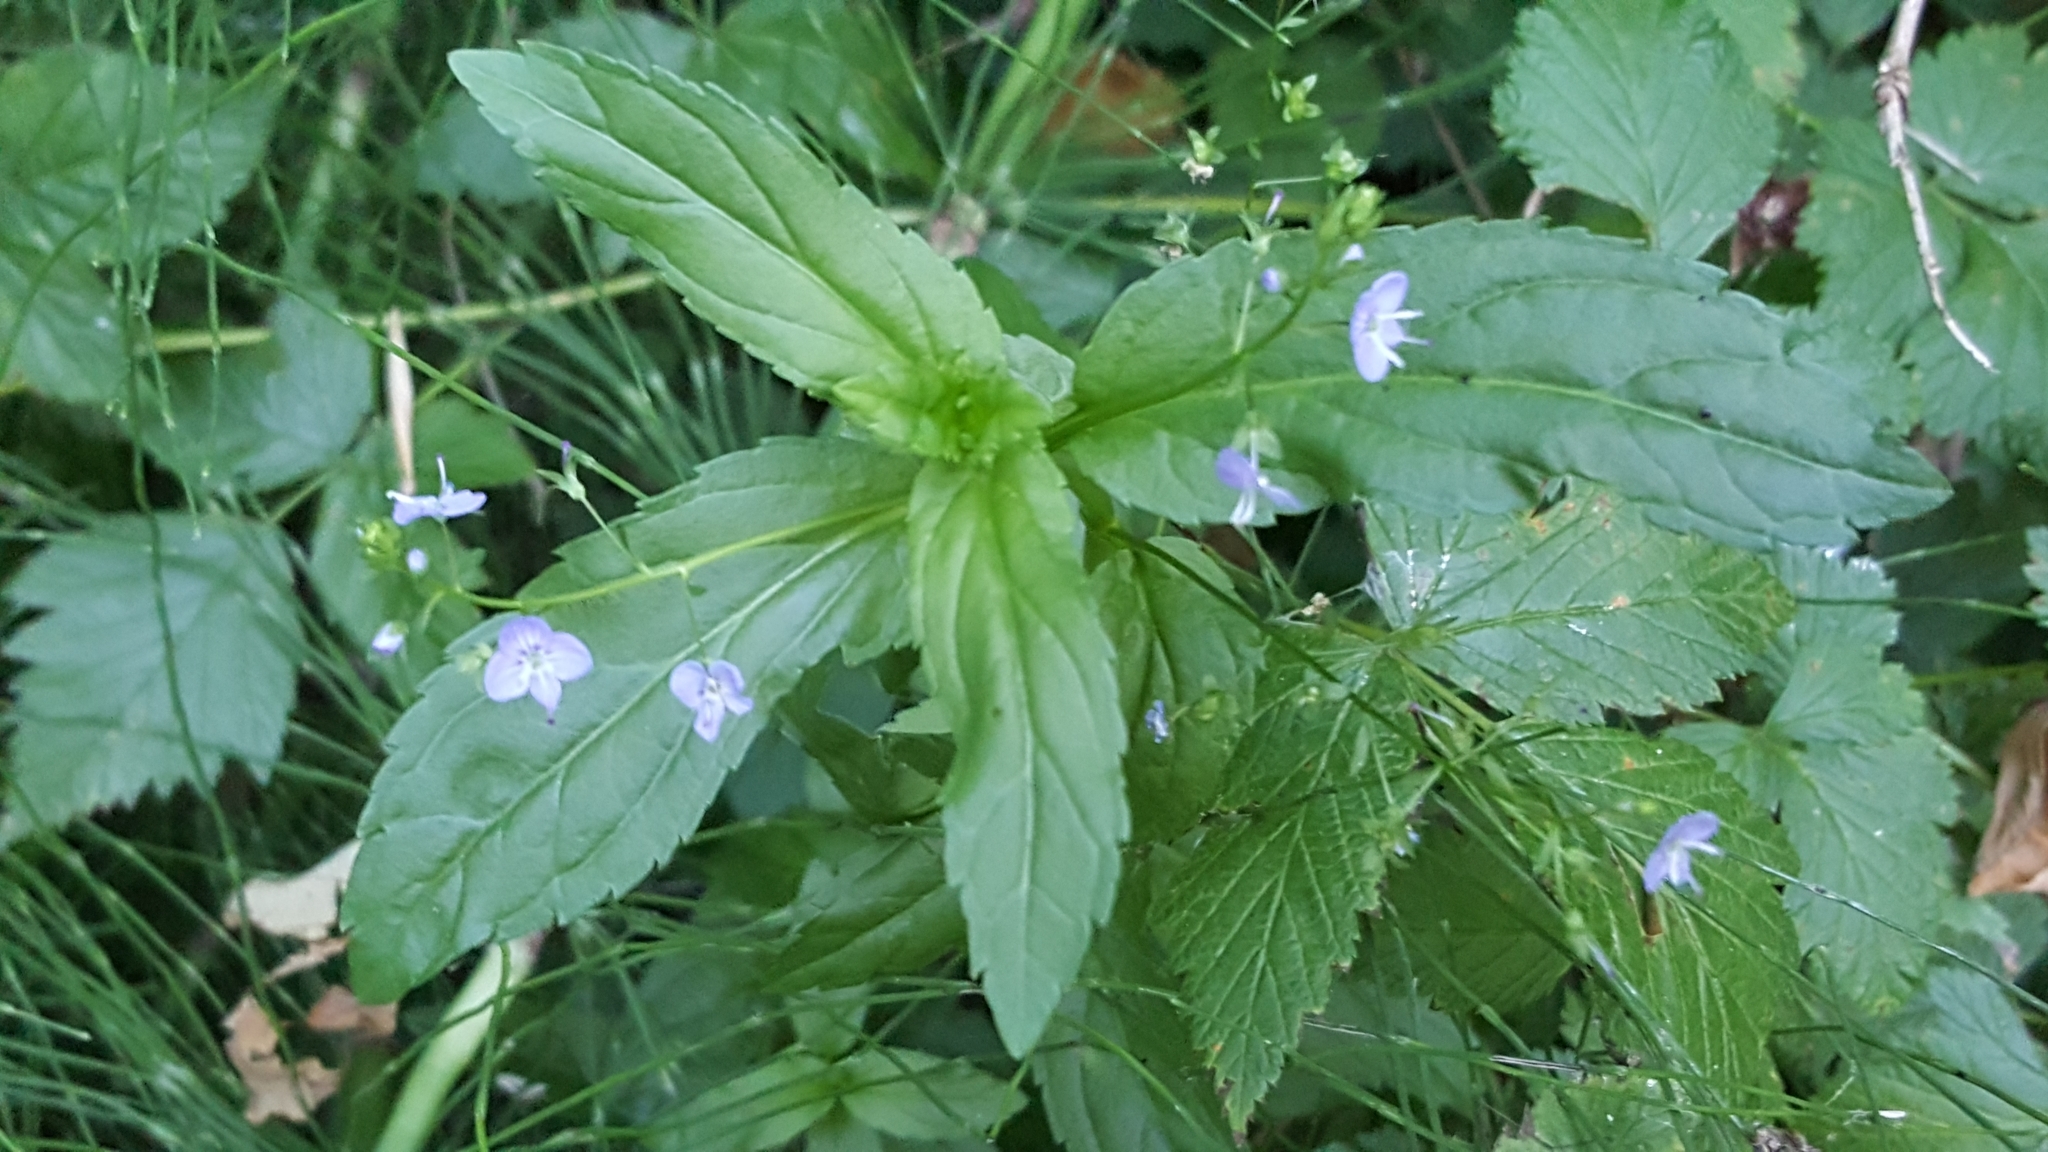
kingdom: Plantae
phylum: Tracheophyta
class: Magnoliopsida
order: Lamiales
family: Plantaginaceae
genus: Veronica
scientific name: Veronica americana
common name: American brooklime
